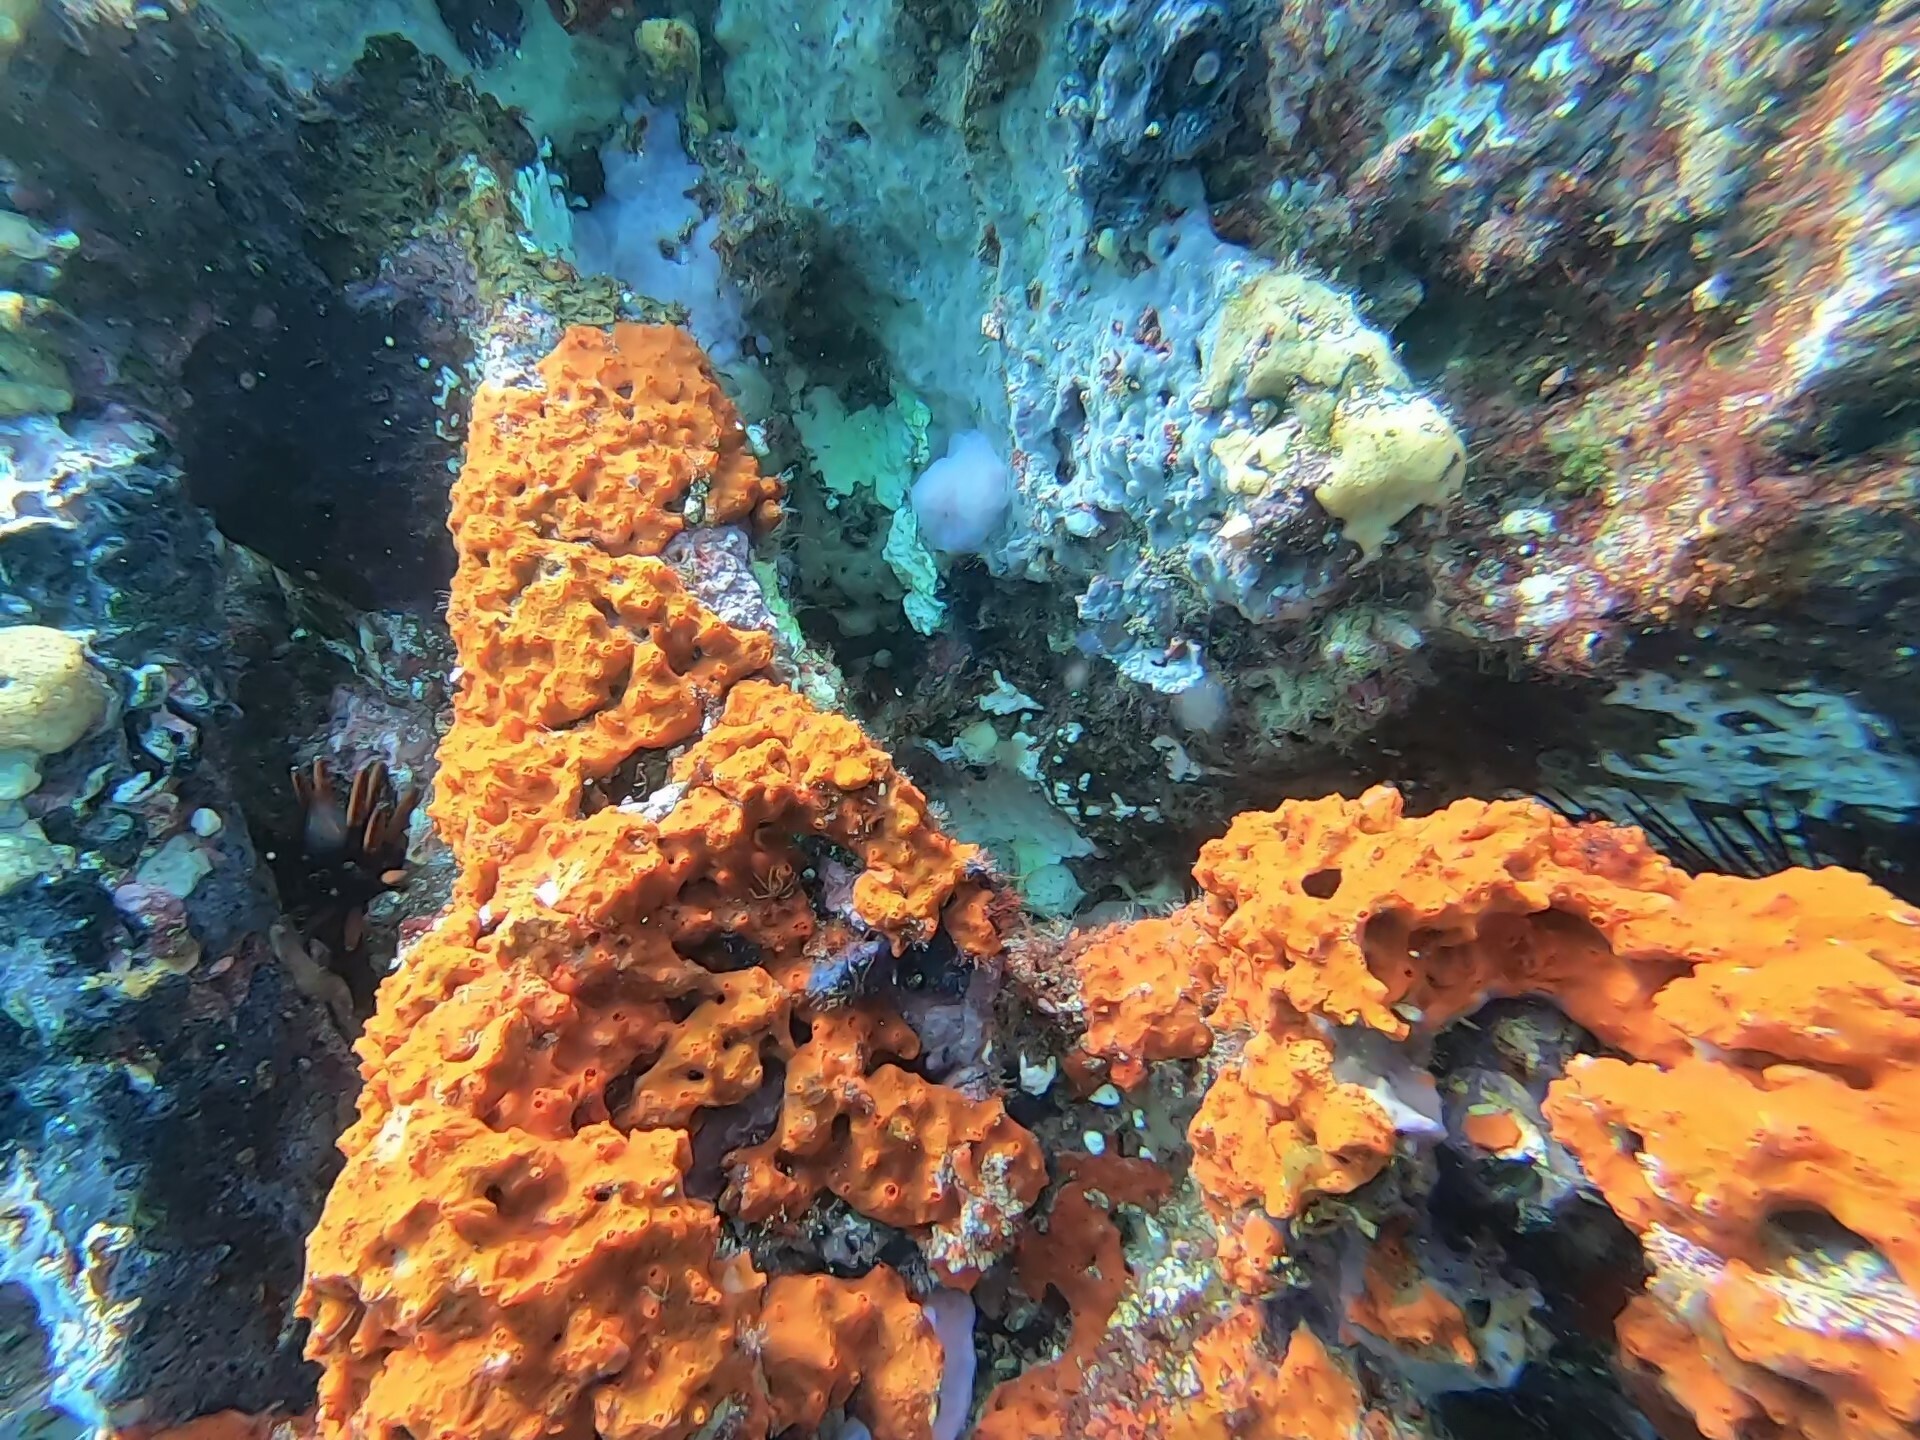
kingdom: Animalia
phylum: Porifera
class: Demospongiae
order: Poecilosclerida
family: Tedaniidae
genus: Tedania
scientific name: Tedania tropicalis
